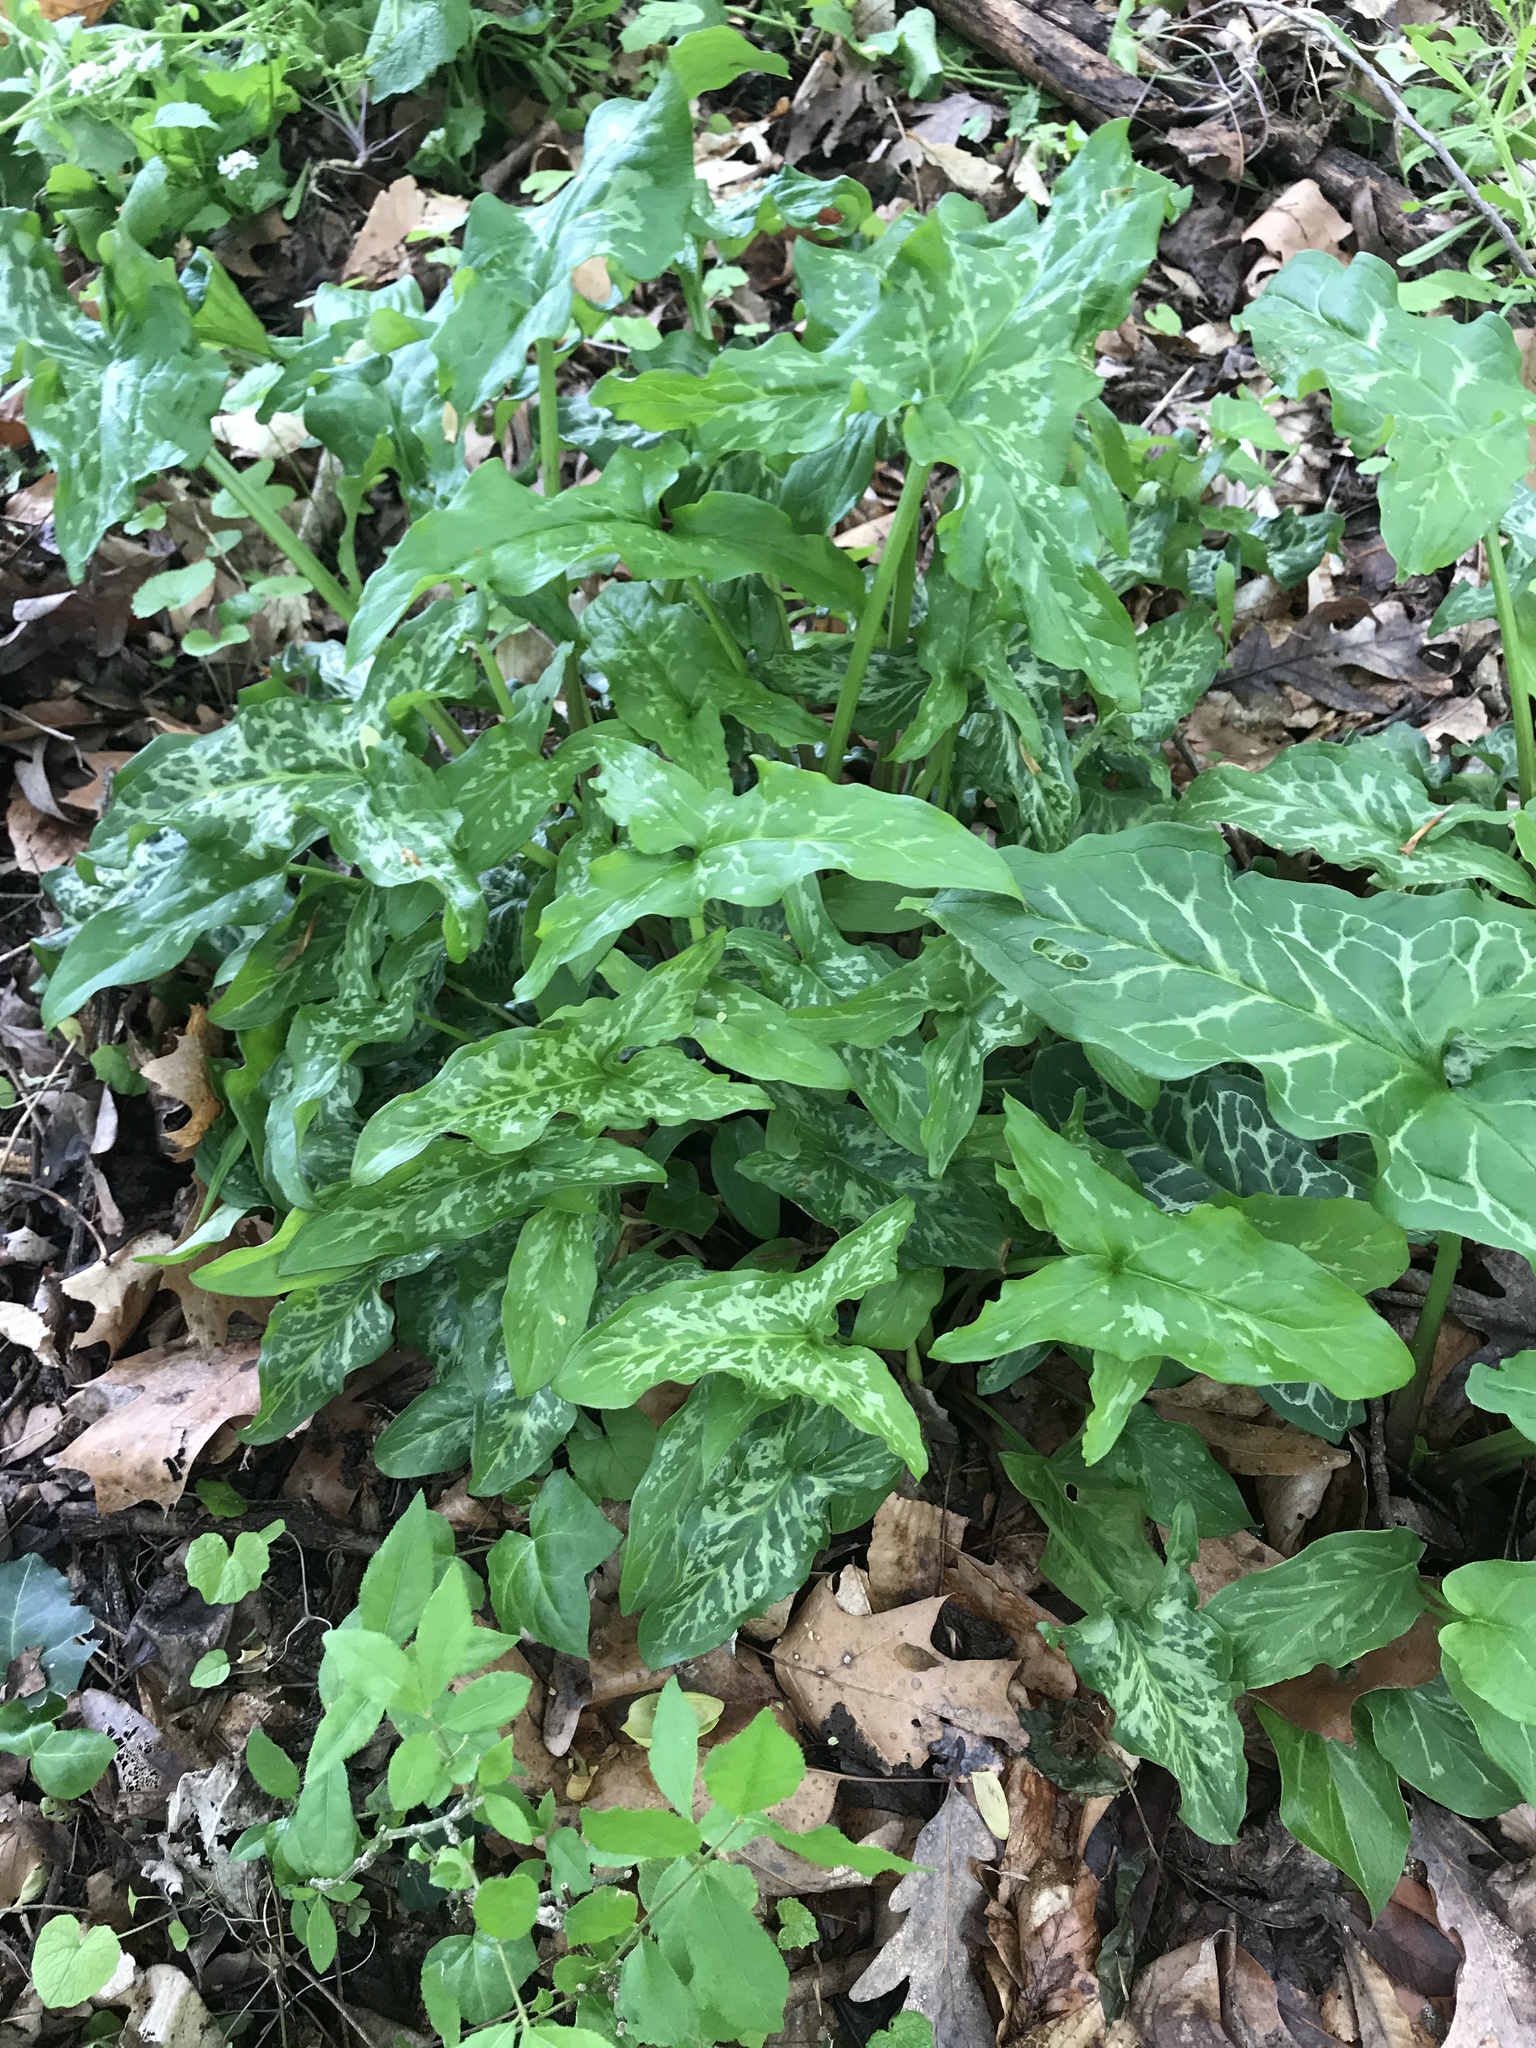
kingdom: Plantae
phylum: Tracheophyta
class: Liliopsida
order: Alismatales
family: Araceae
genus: Arum
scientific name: Arum italicum
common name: Italian lords-and-ladies
